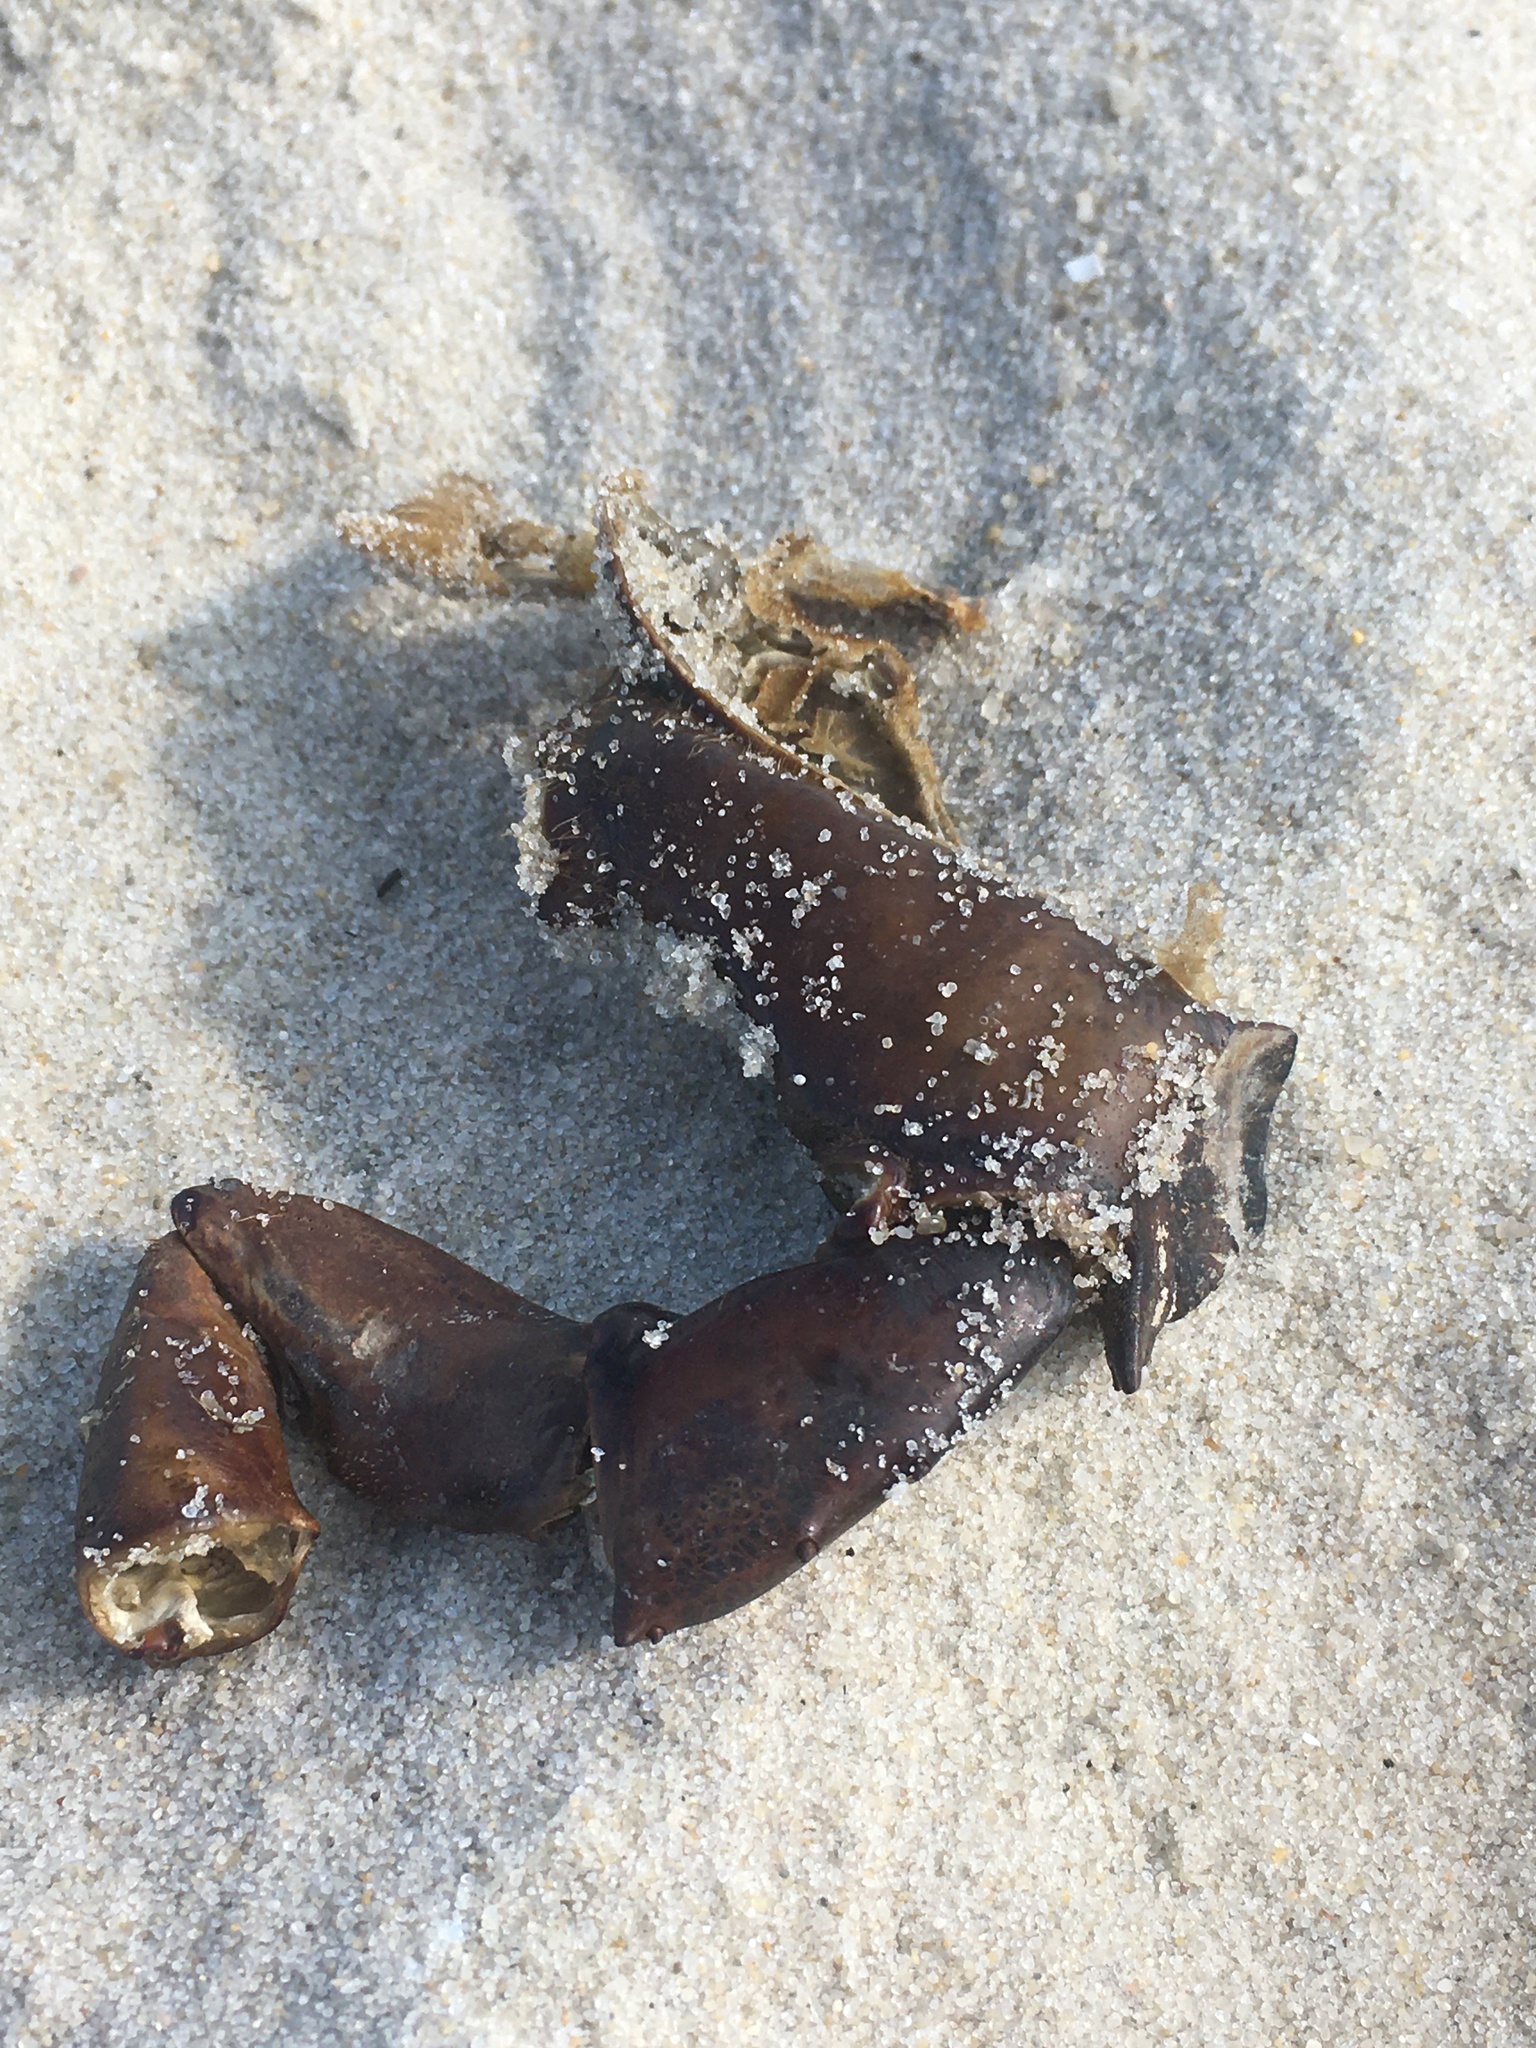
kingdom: Animalia
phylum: Arthropoda
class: Merostomata
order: Xiphosurida
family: Limulidae
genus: Limulus
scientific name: Limulus polyphemus
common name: Horseshoe crab
